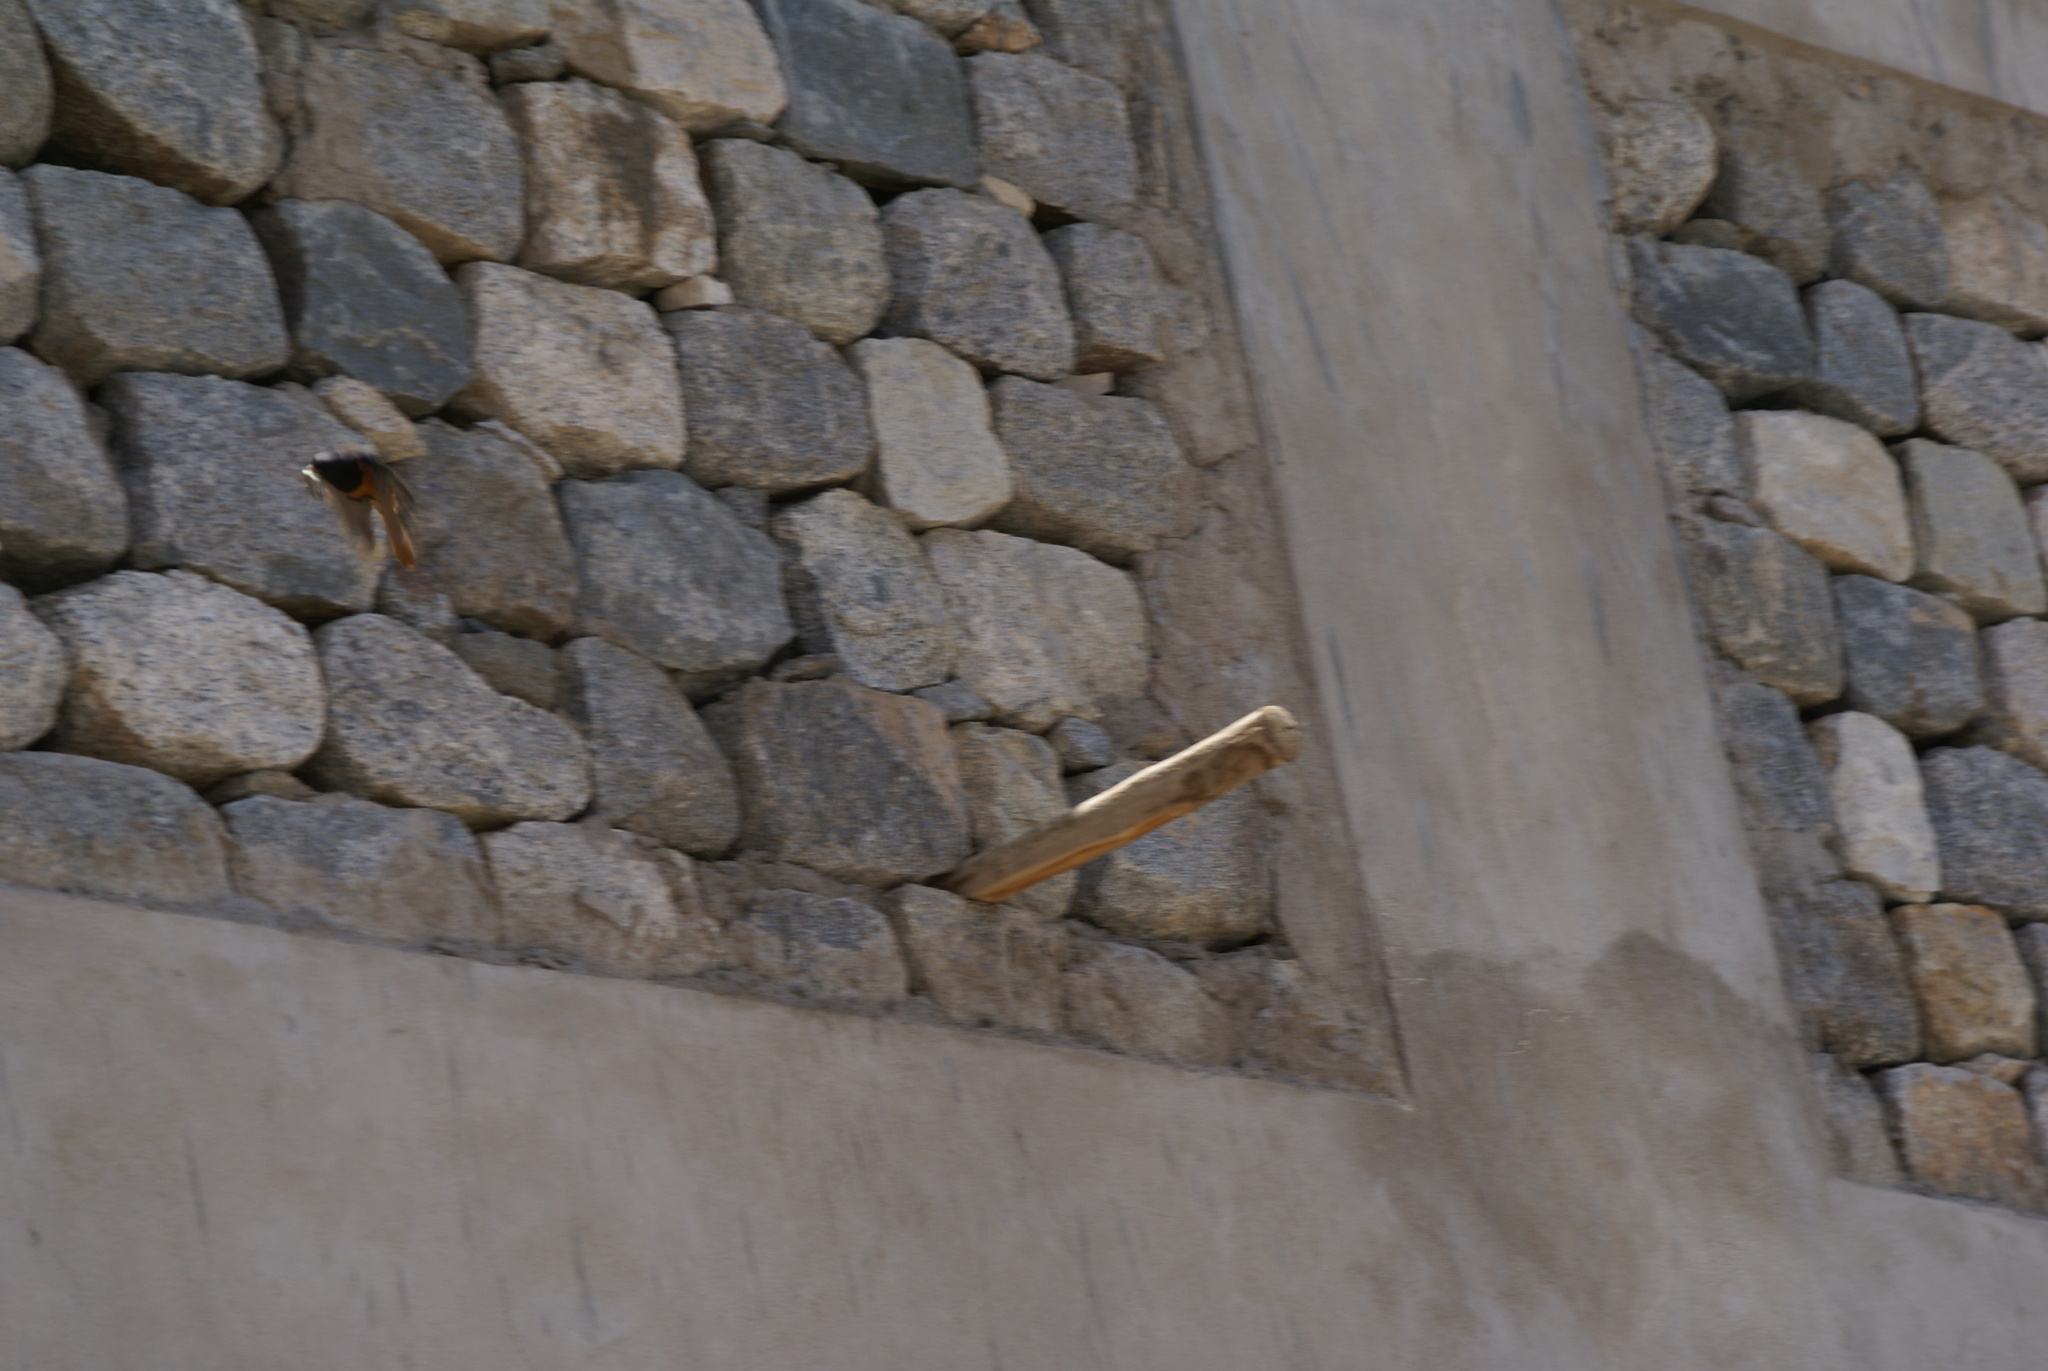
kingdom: Animalia
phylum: Chordata
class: Aves
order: Passeriformes
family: Muscicapidae
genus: Phoenicurus
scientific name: Phoenicurus ochruros
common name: Black redstart
